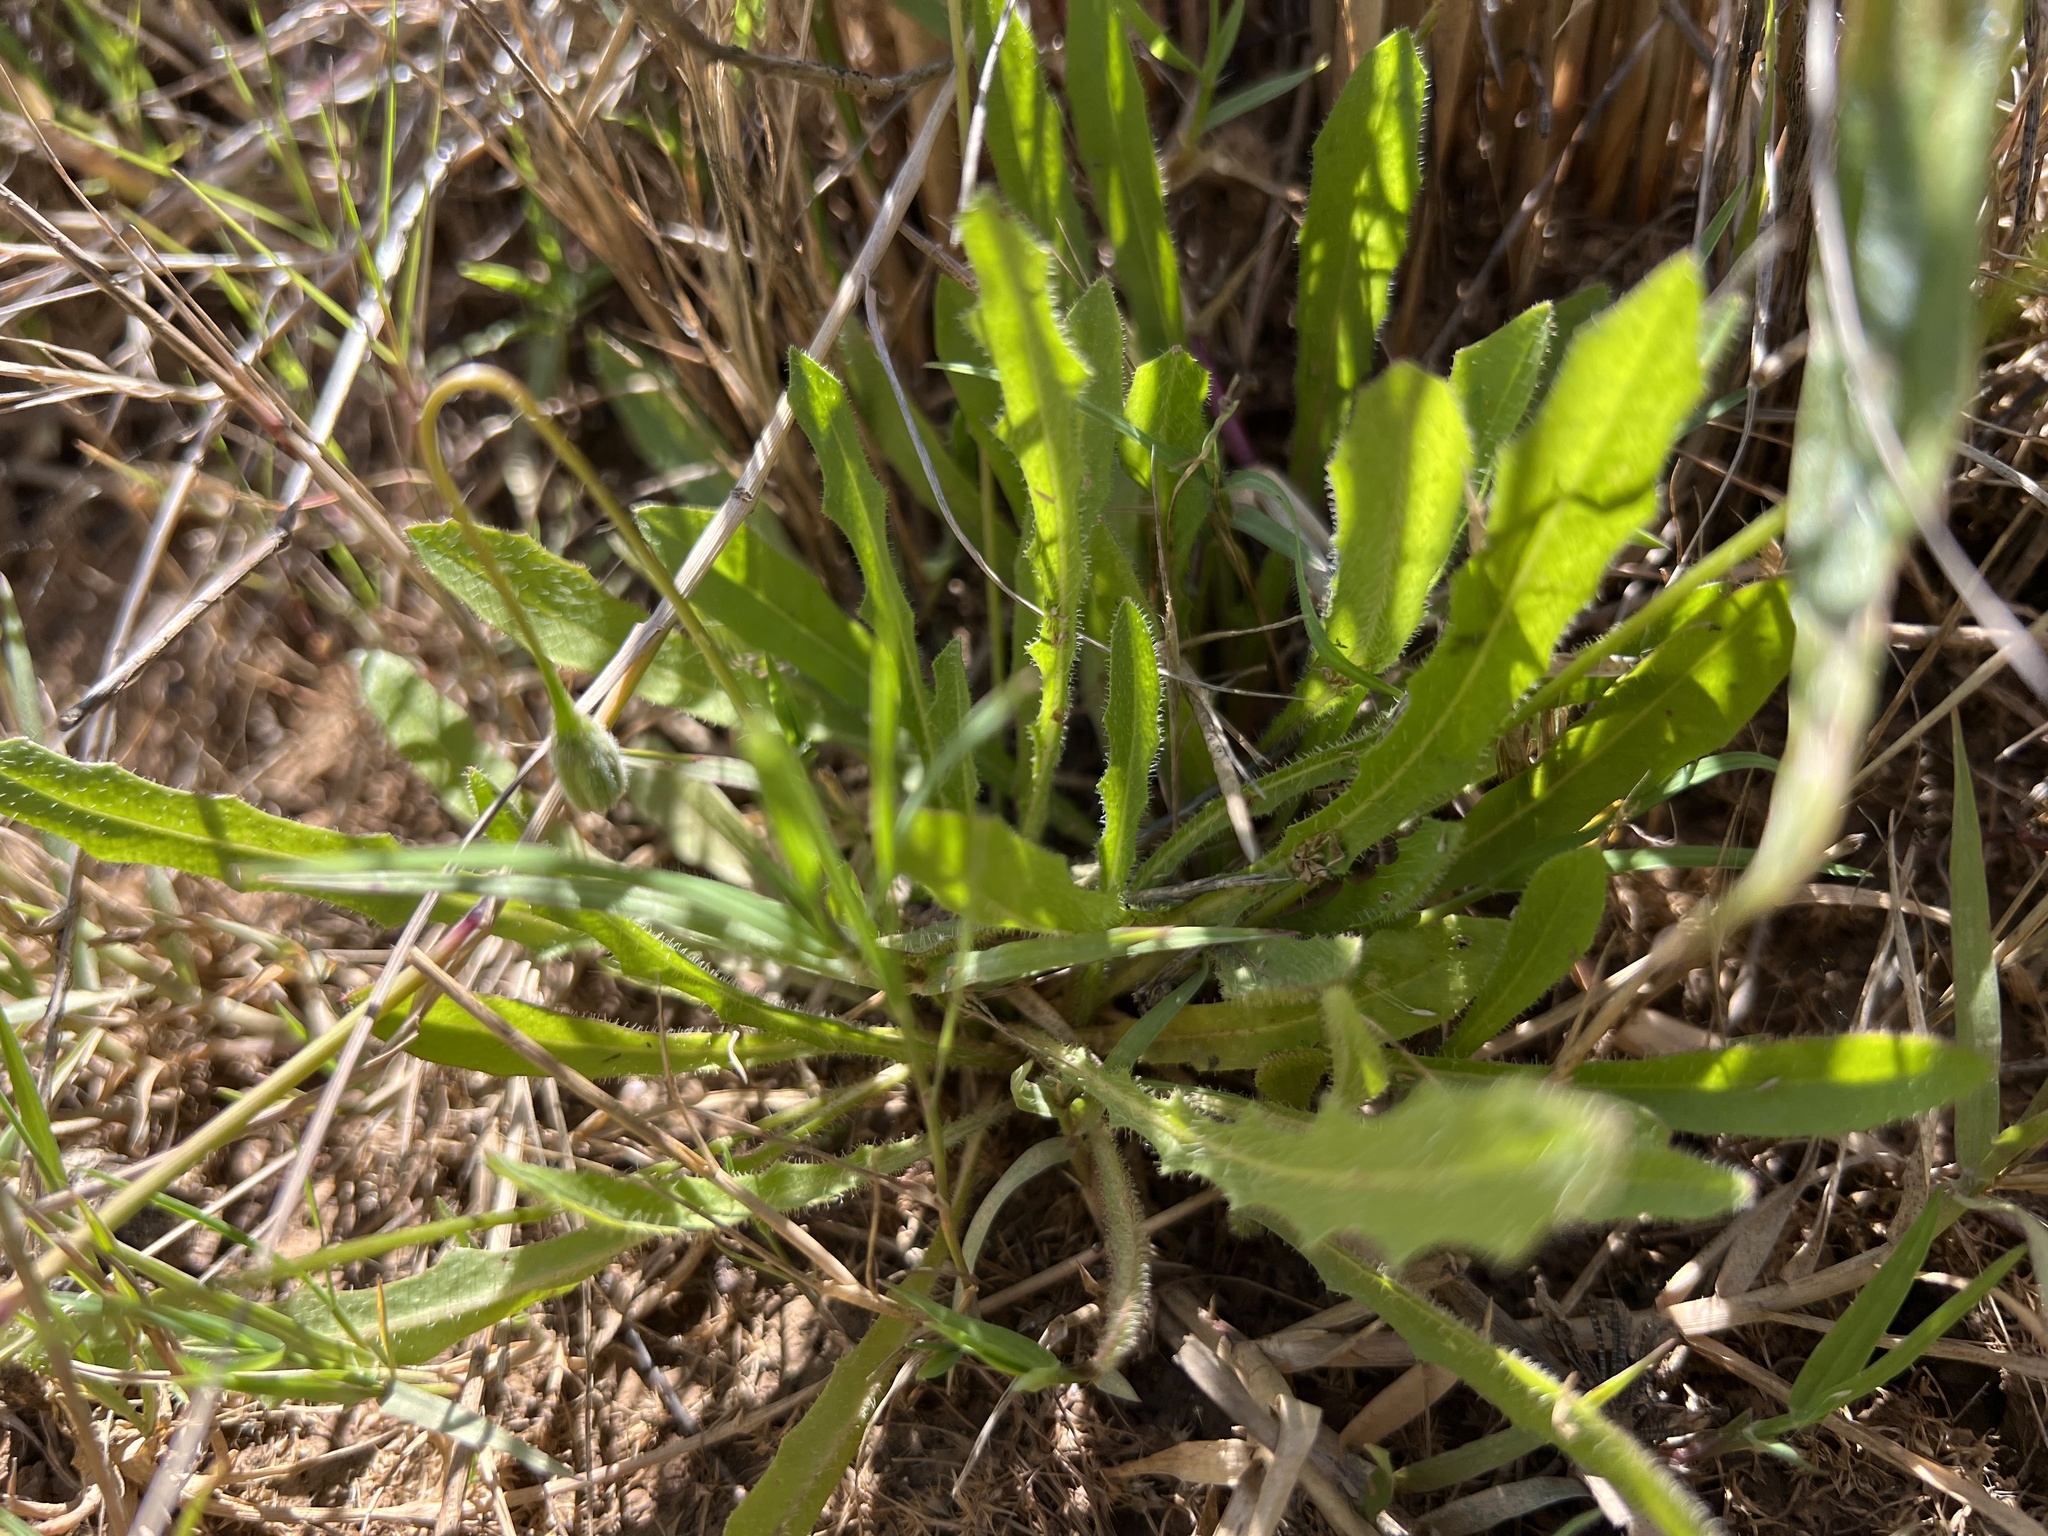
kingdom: Plantae
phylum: Tracheophyta
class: Magnoliopsida
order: Asterales
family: Asteraceae
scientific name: Asteraceae
